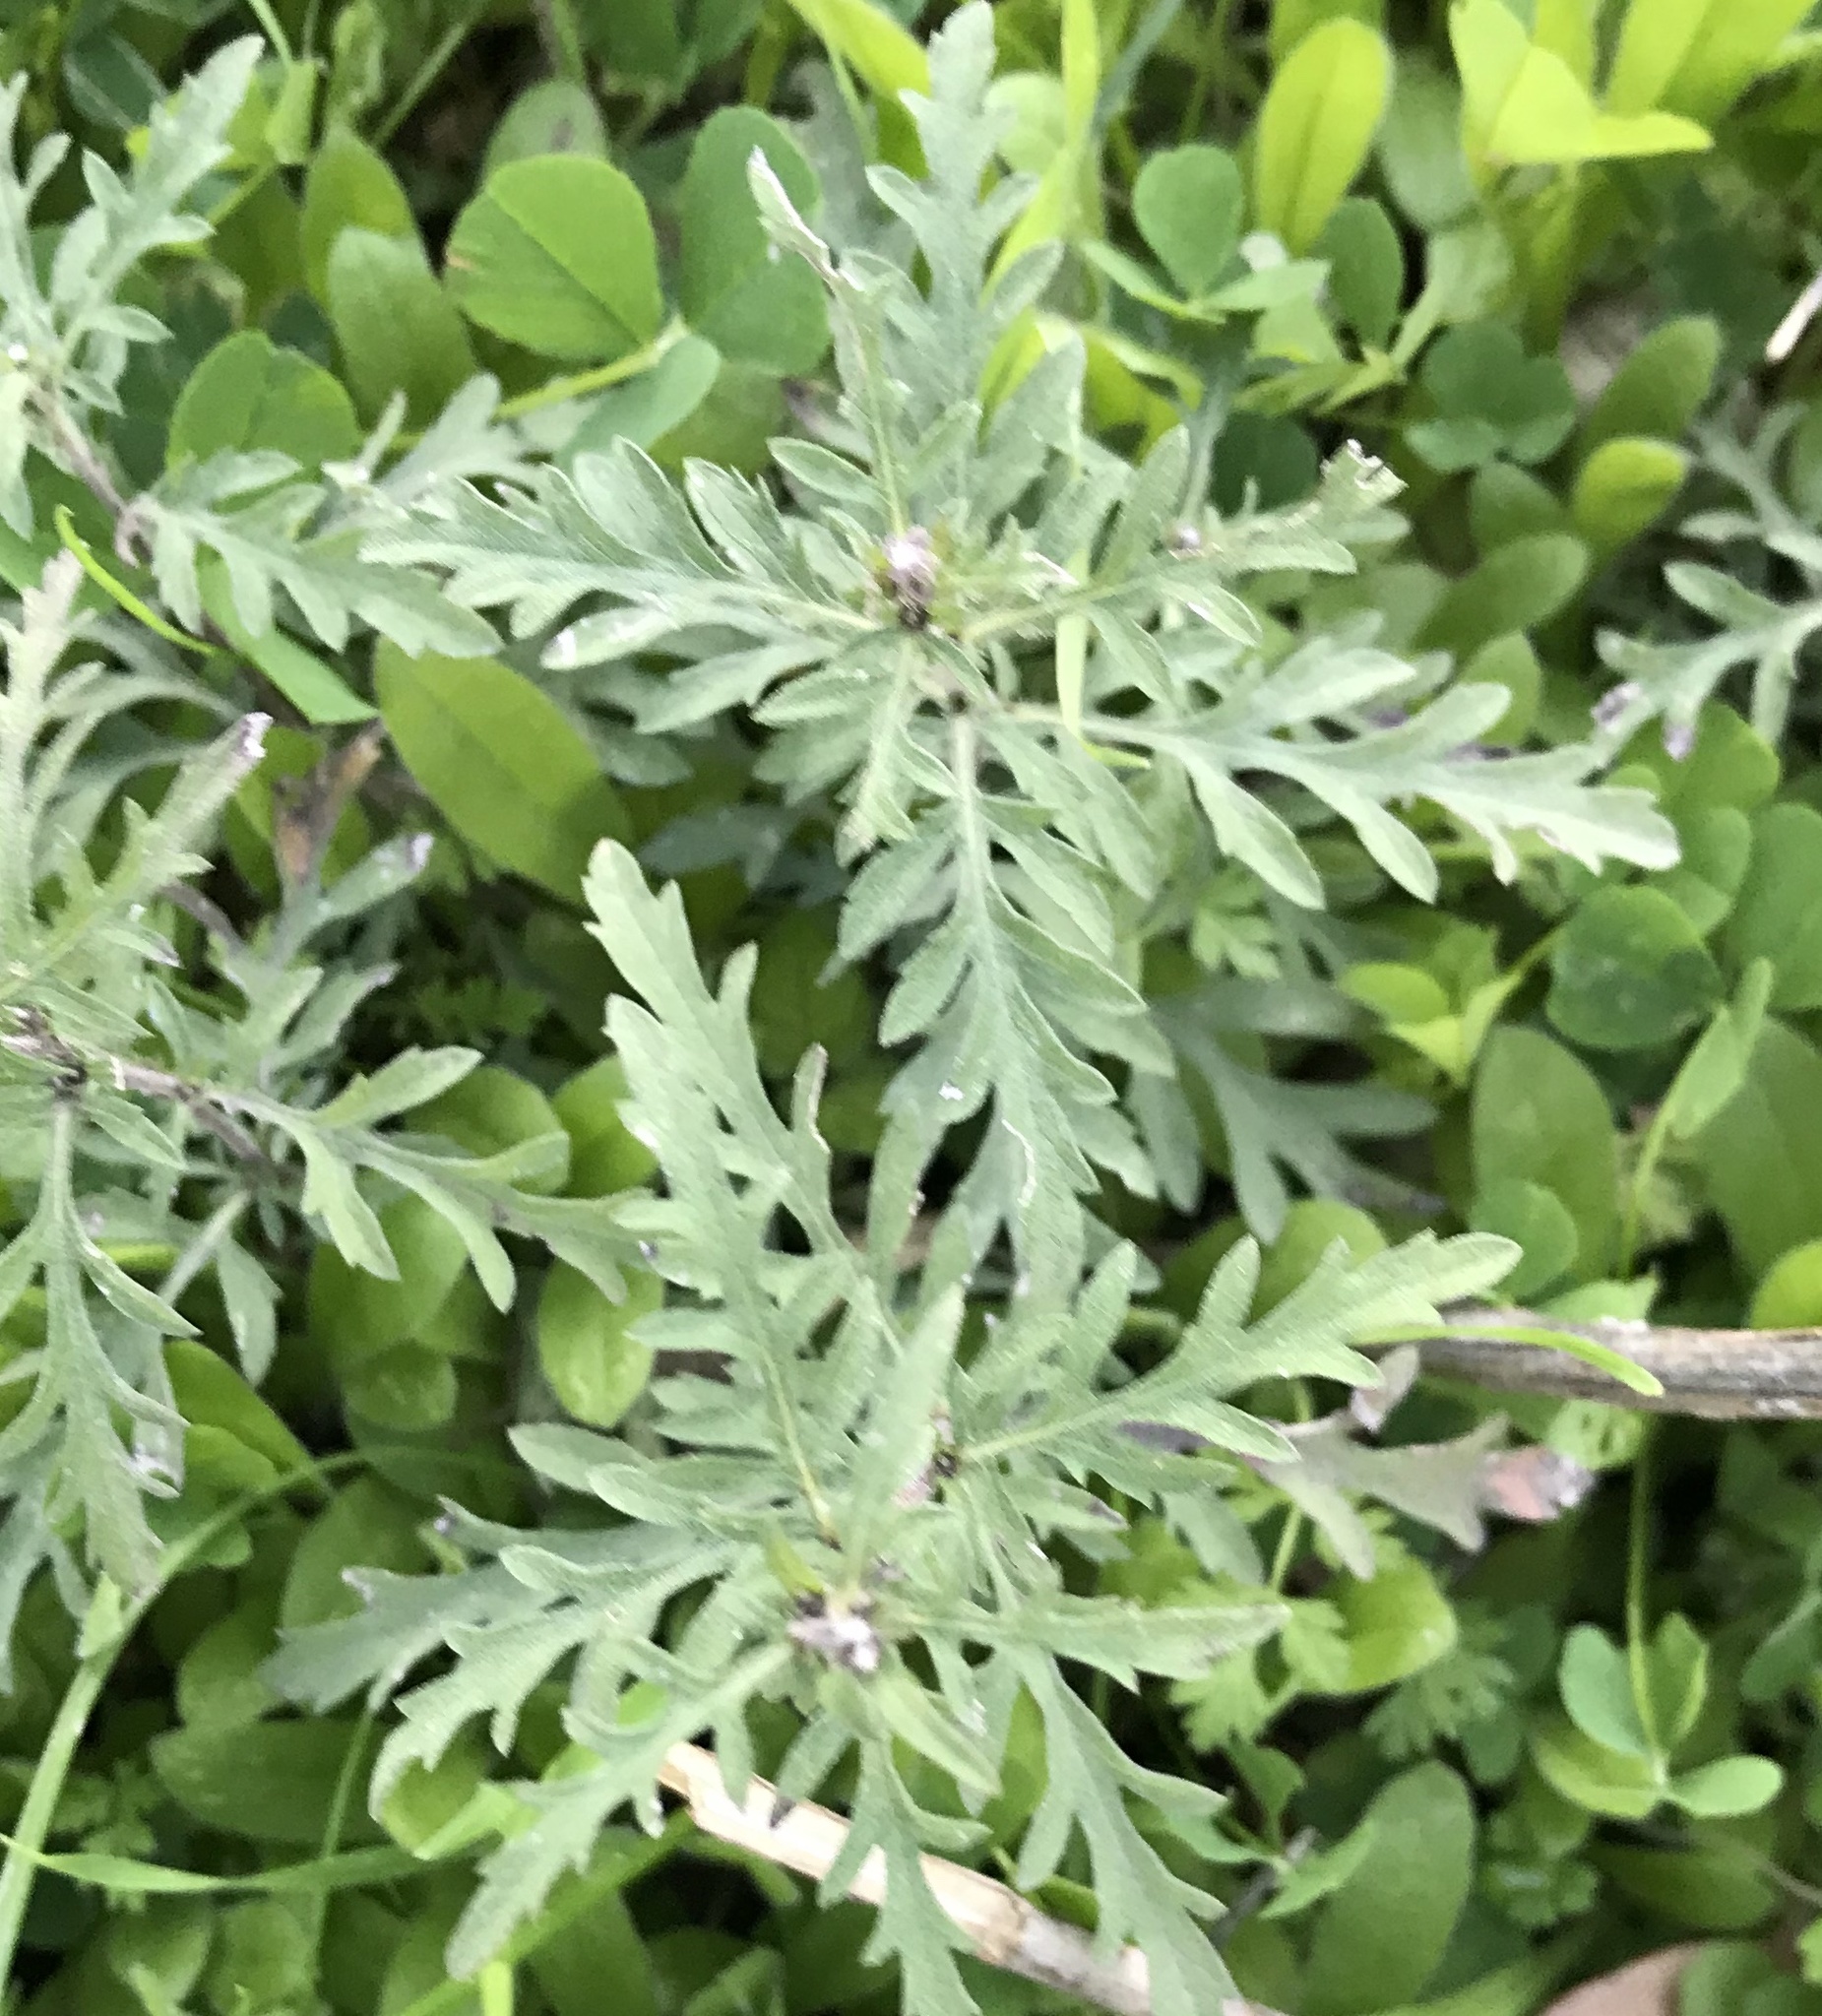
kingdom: Plantae
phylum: Tracheophyta
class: Magnoliopsida
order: Asterales
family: Asteraceae
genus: Ambrosia
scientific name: Ambrosia psilostachya
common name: Perennial ragweed
